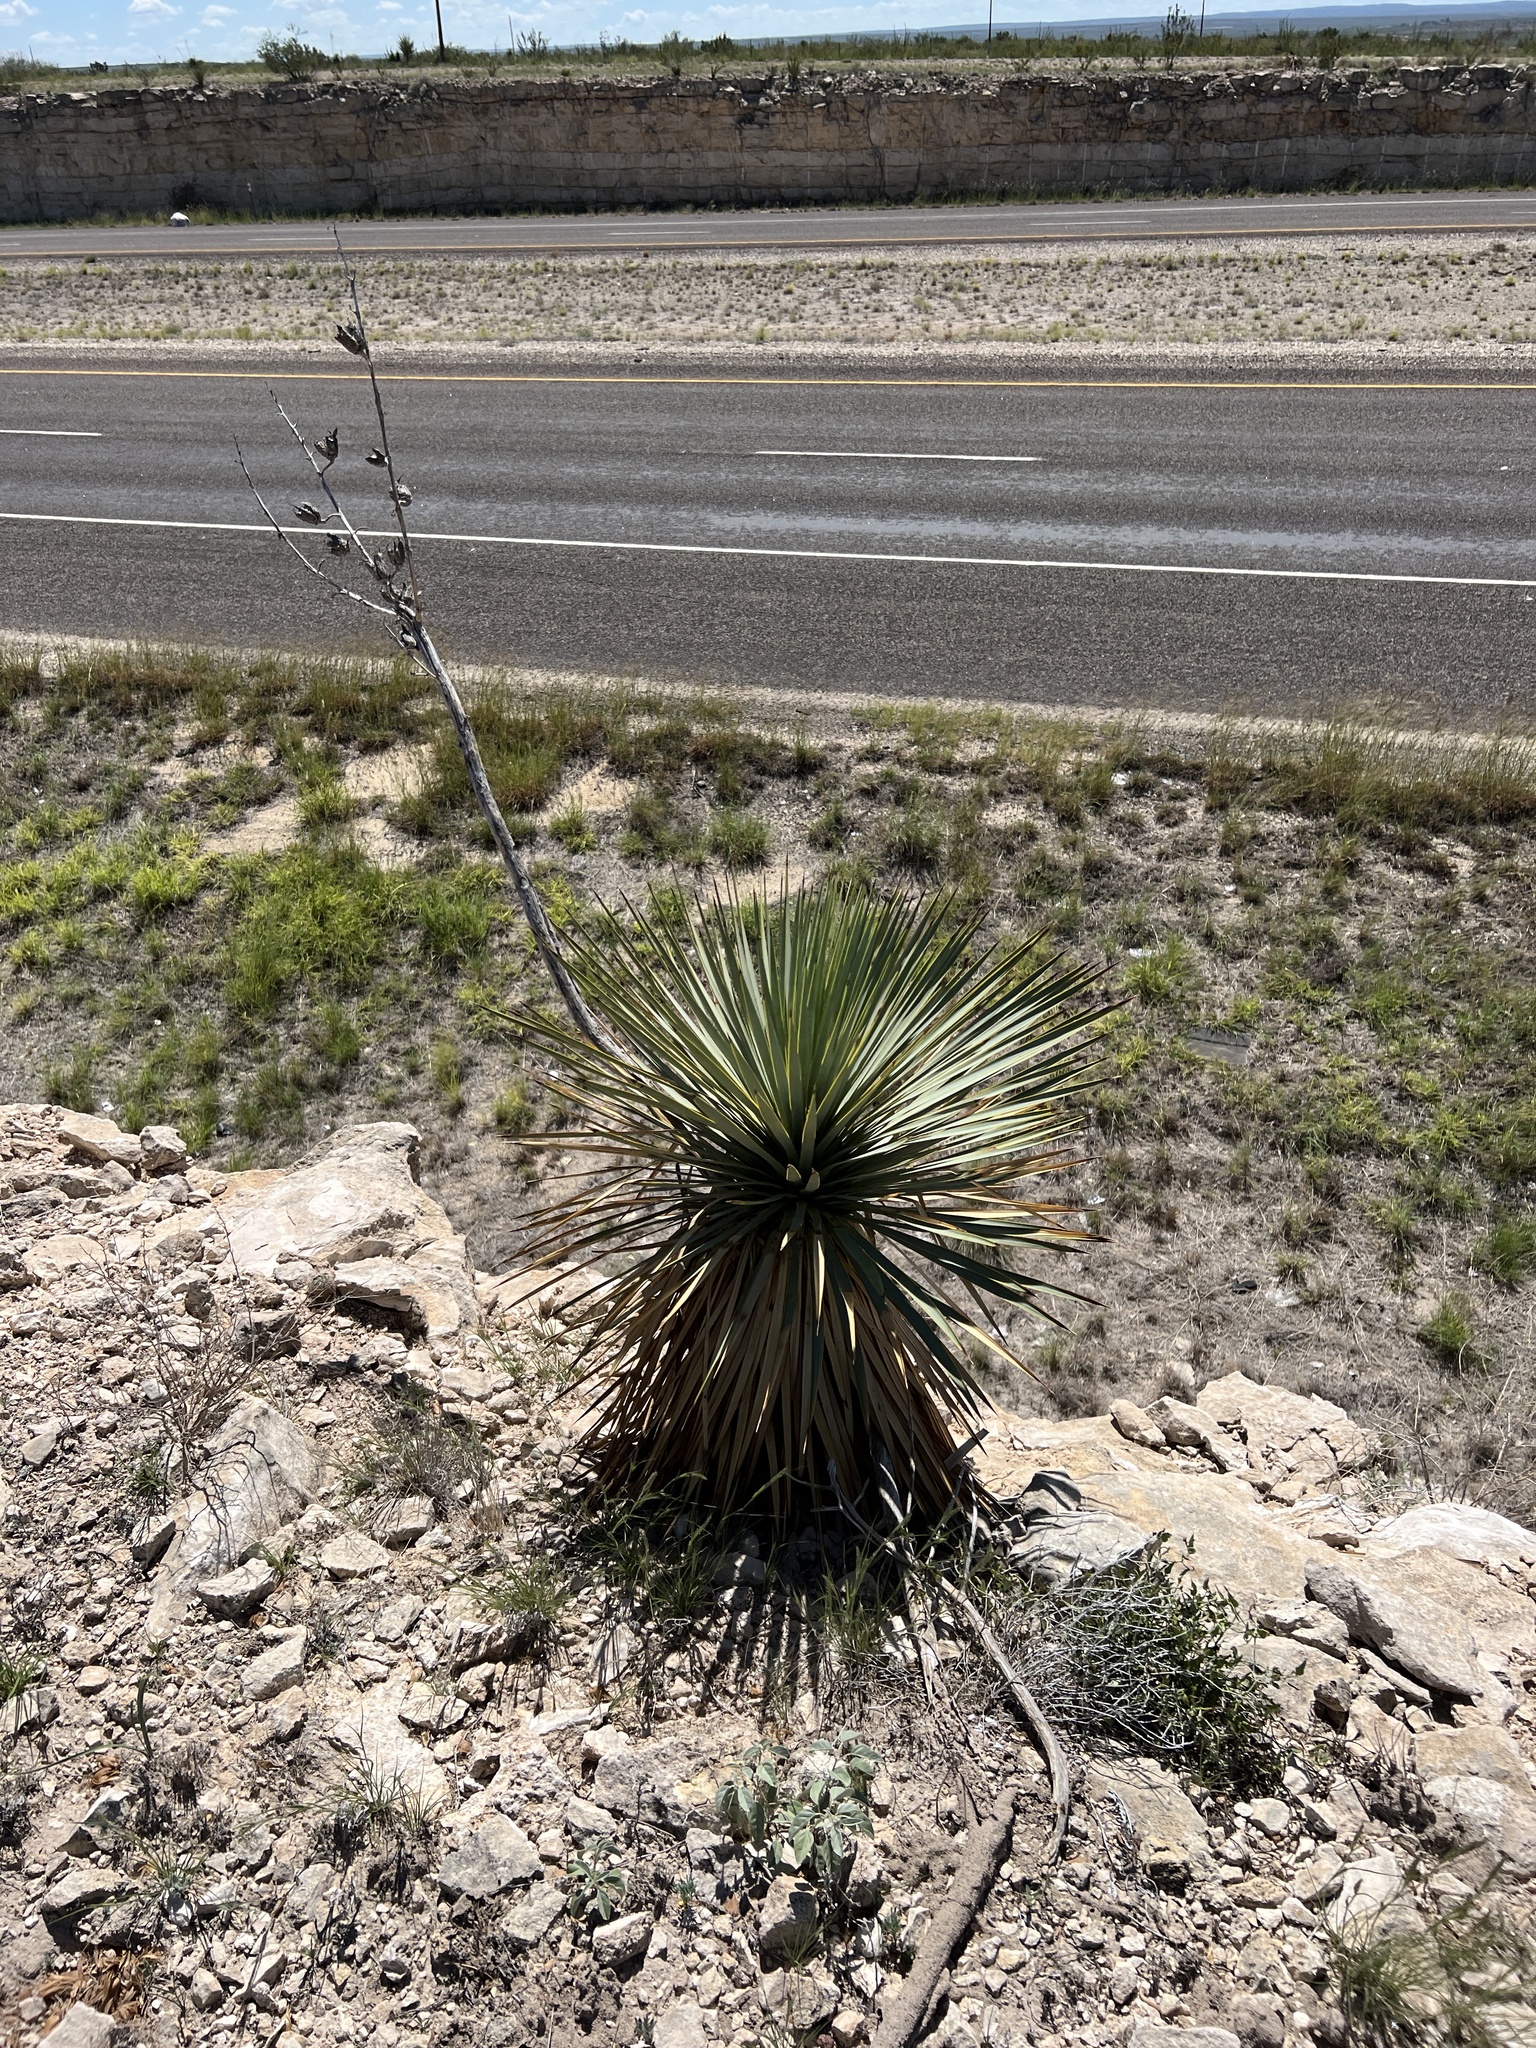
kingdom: Plantae
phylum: Tracheophyta
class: Liliopsida
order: Asparagales
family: Asparagaceae
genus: Yucca
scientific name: Yucca thompsoniana
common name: Trans-pecos yucca
